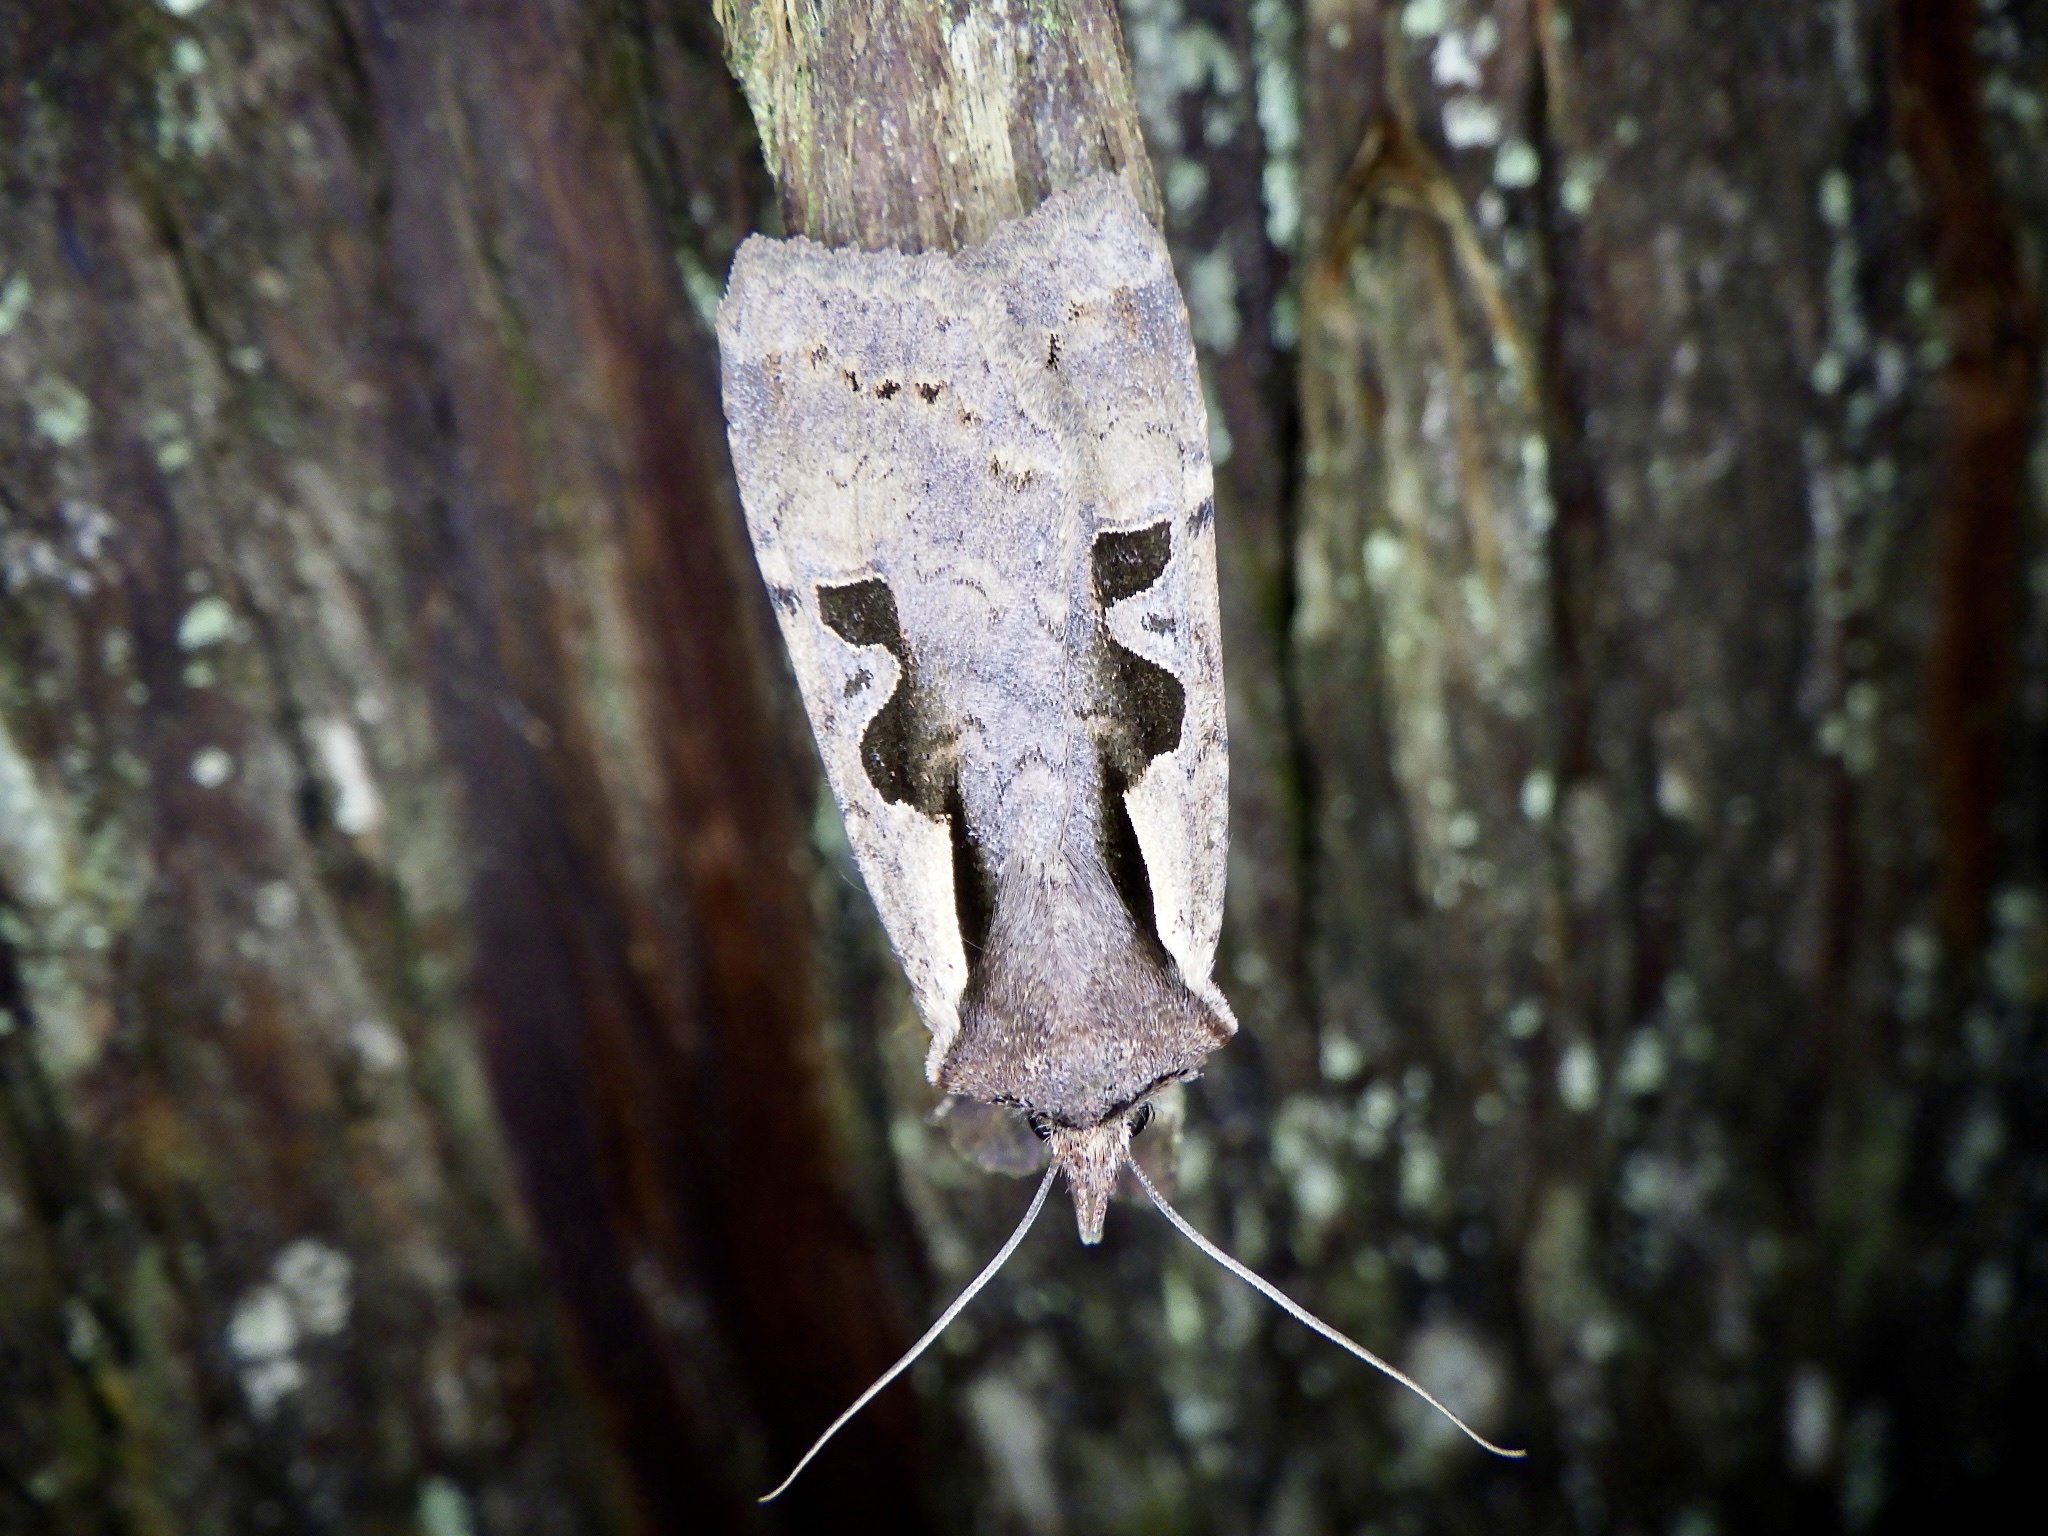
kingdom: Animalia
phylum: Arthropoda
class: Insecta
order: Lepidoptera
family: Noctuidae
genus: Sugitania
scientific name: Sugitania lepida
